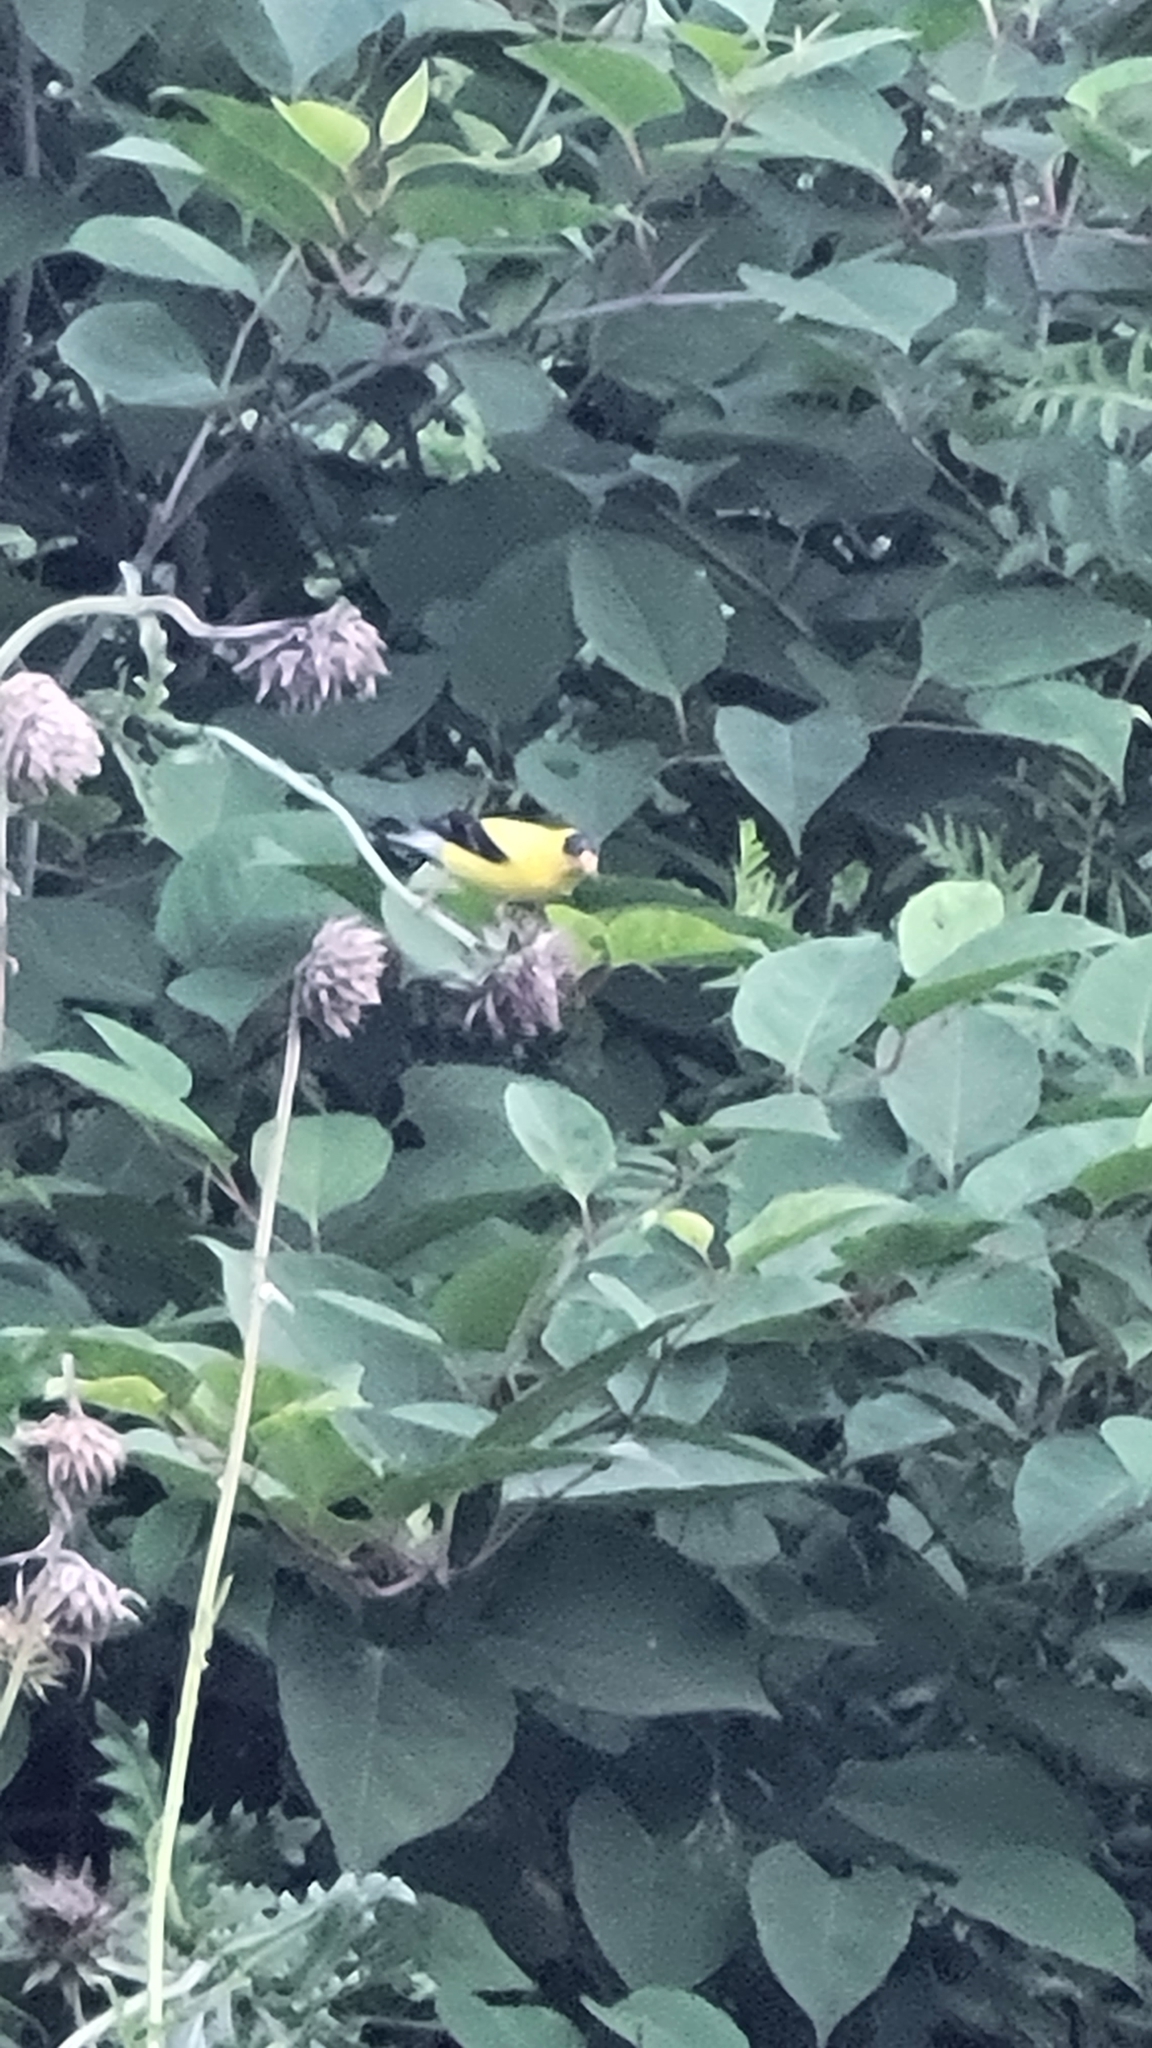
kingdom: Animalia
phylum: Chordata
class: Aves
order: Passeriformes
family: Fringillidae
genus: Spinus
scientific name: Spinus tristis
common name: American goldfinch
